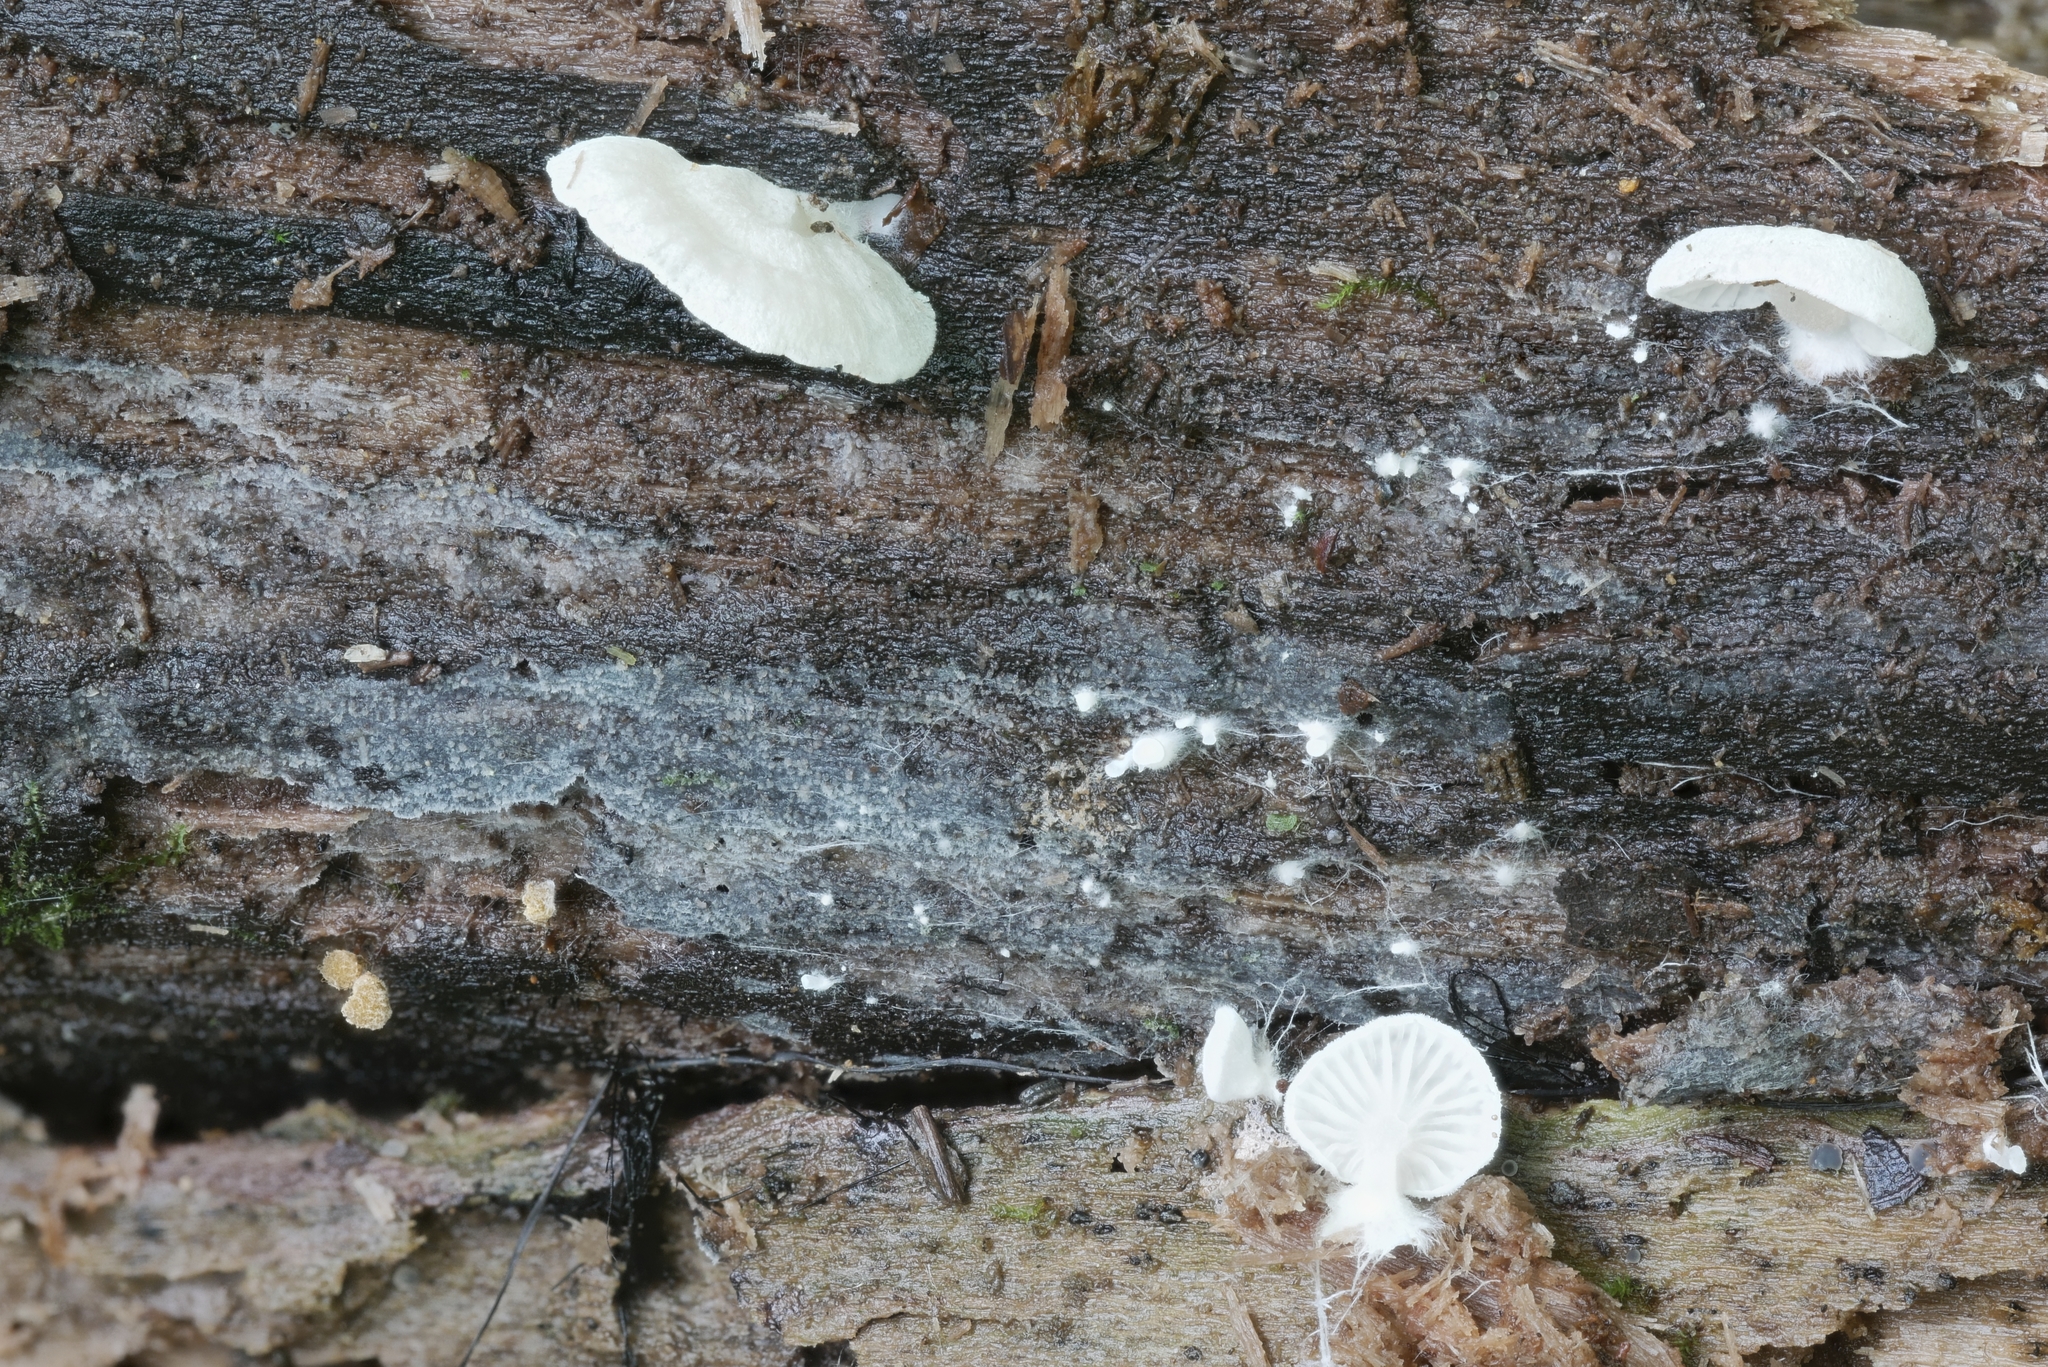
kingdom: Fungi
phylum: Basidiomycota
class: Agaricomycetes
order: Agaricales
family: Cyphellaceae
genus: Cheimonophyllum
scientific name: Cheimonophyllum
